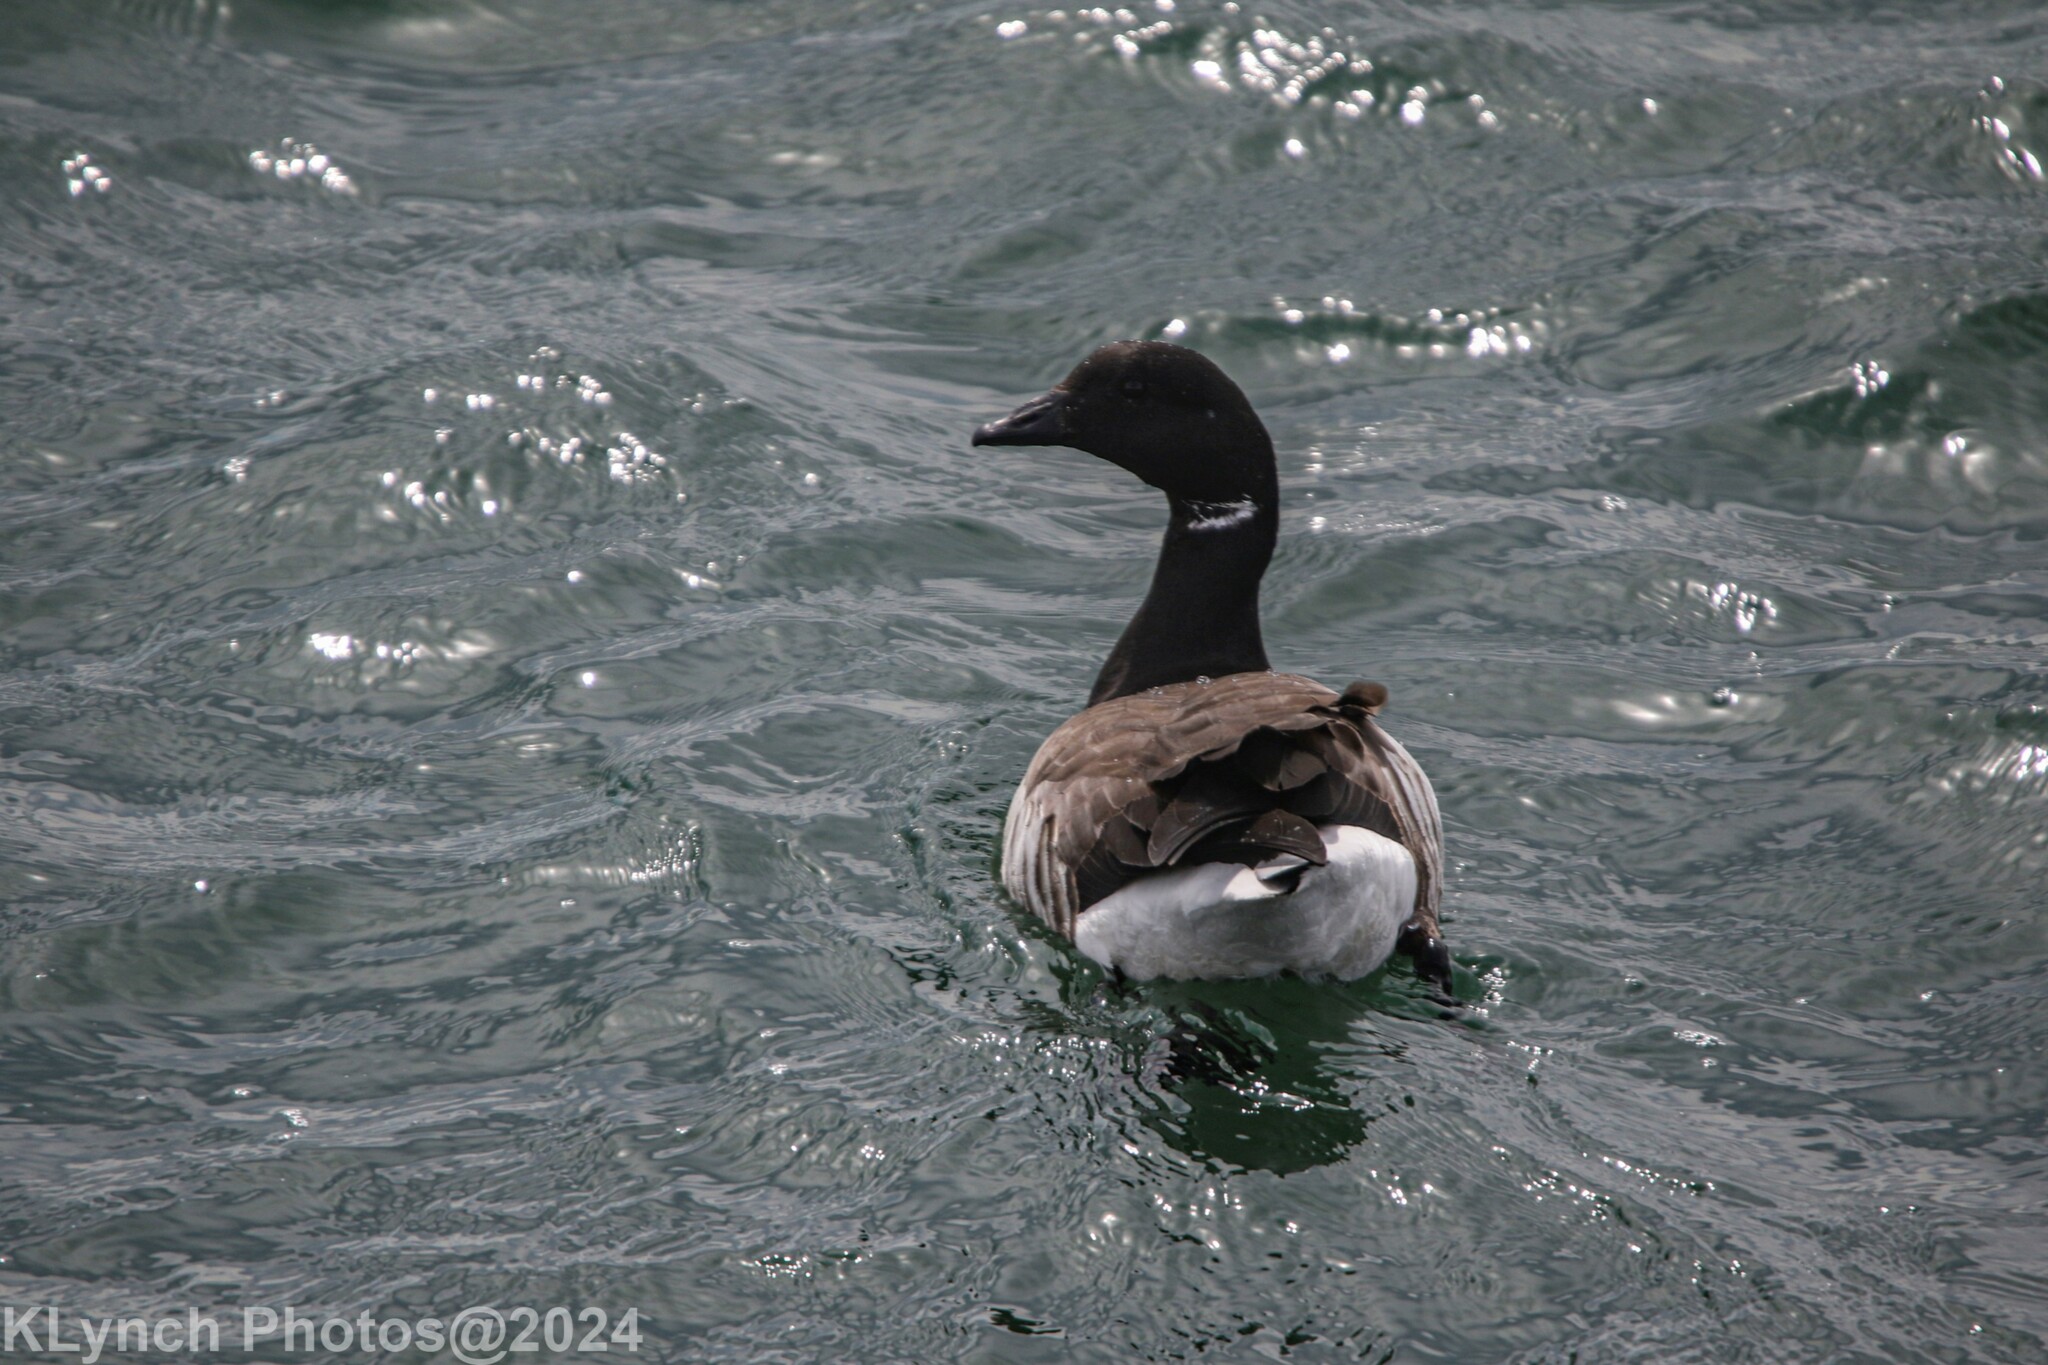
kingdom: Animalia
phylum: Chordata
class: Aves
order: Anseriformes
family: Anatidae
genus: Branta
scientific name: Branta bernicla
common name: Brant goose
